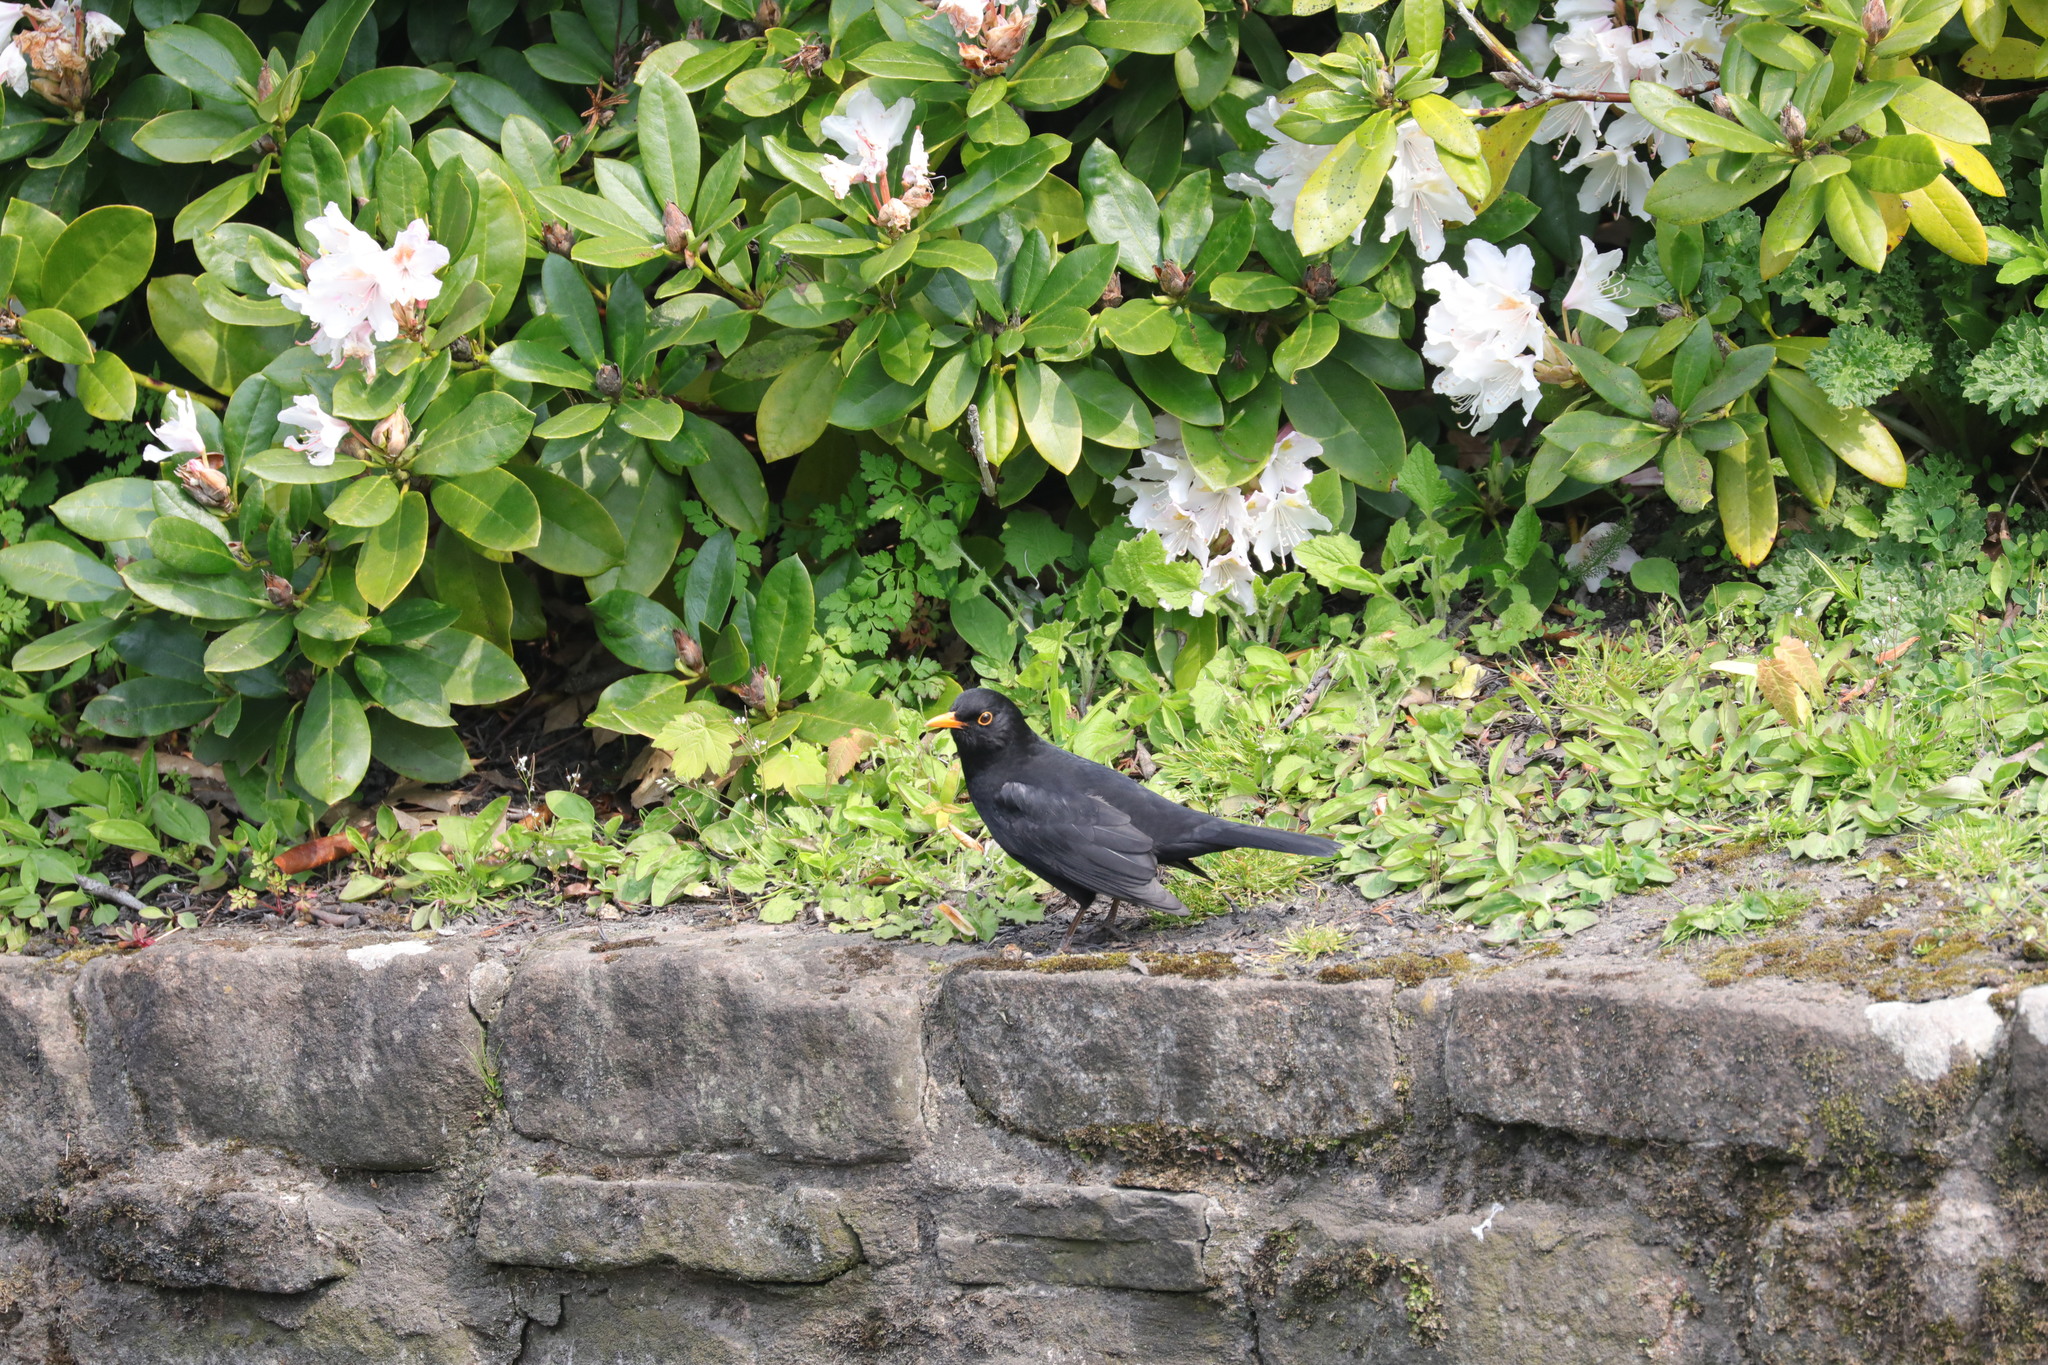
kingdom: Animalia
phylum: Chordata
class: Aves
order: Passeriformes
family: Turdidae
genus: Turdus
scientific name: Turdus merula
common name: Common blackbird
